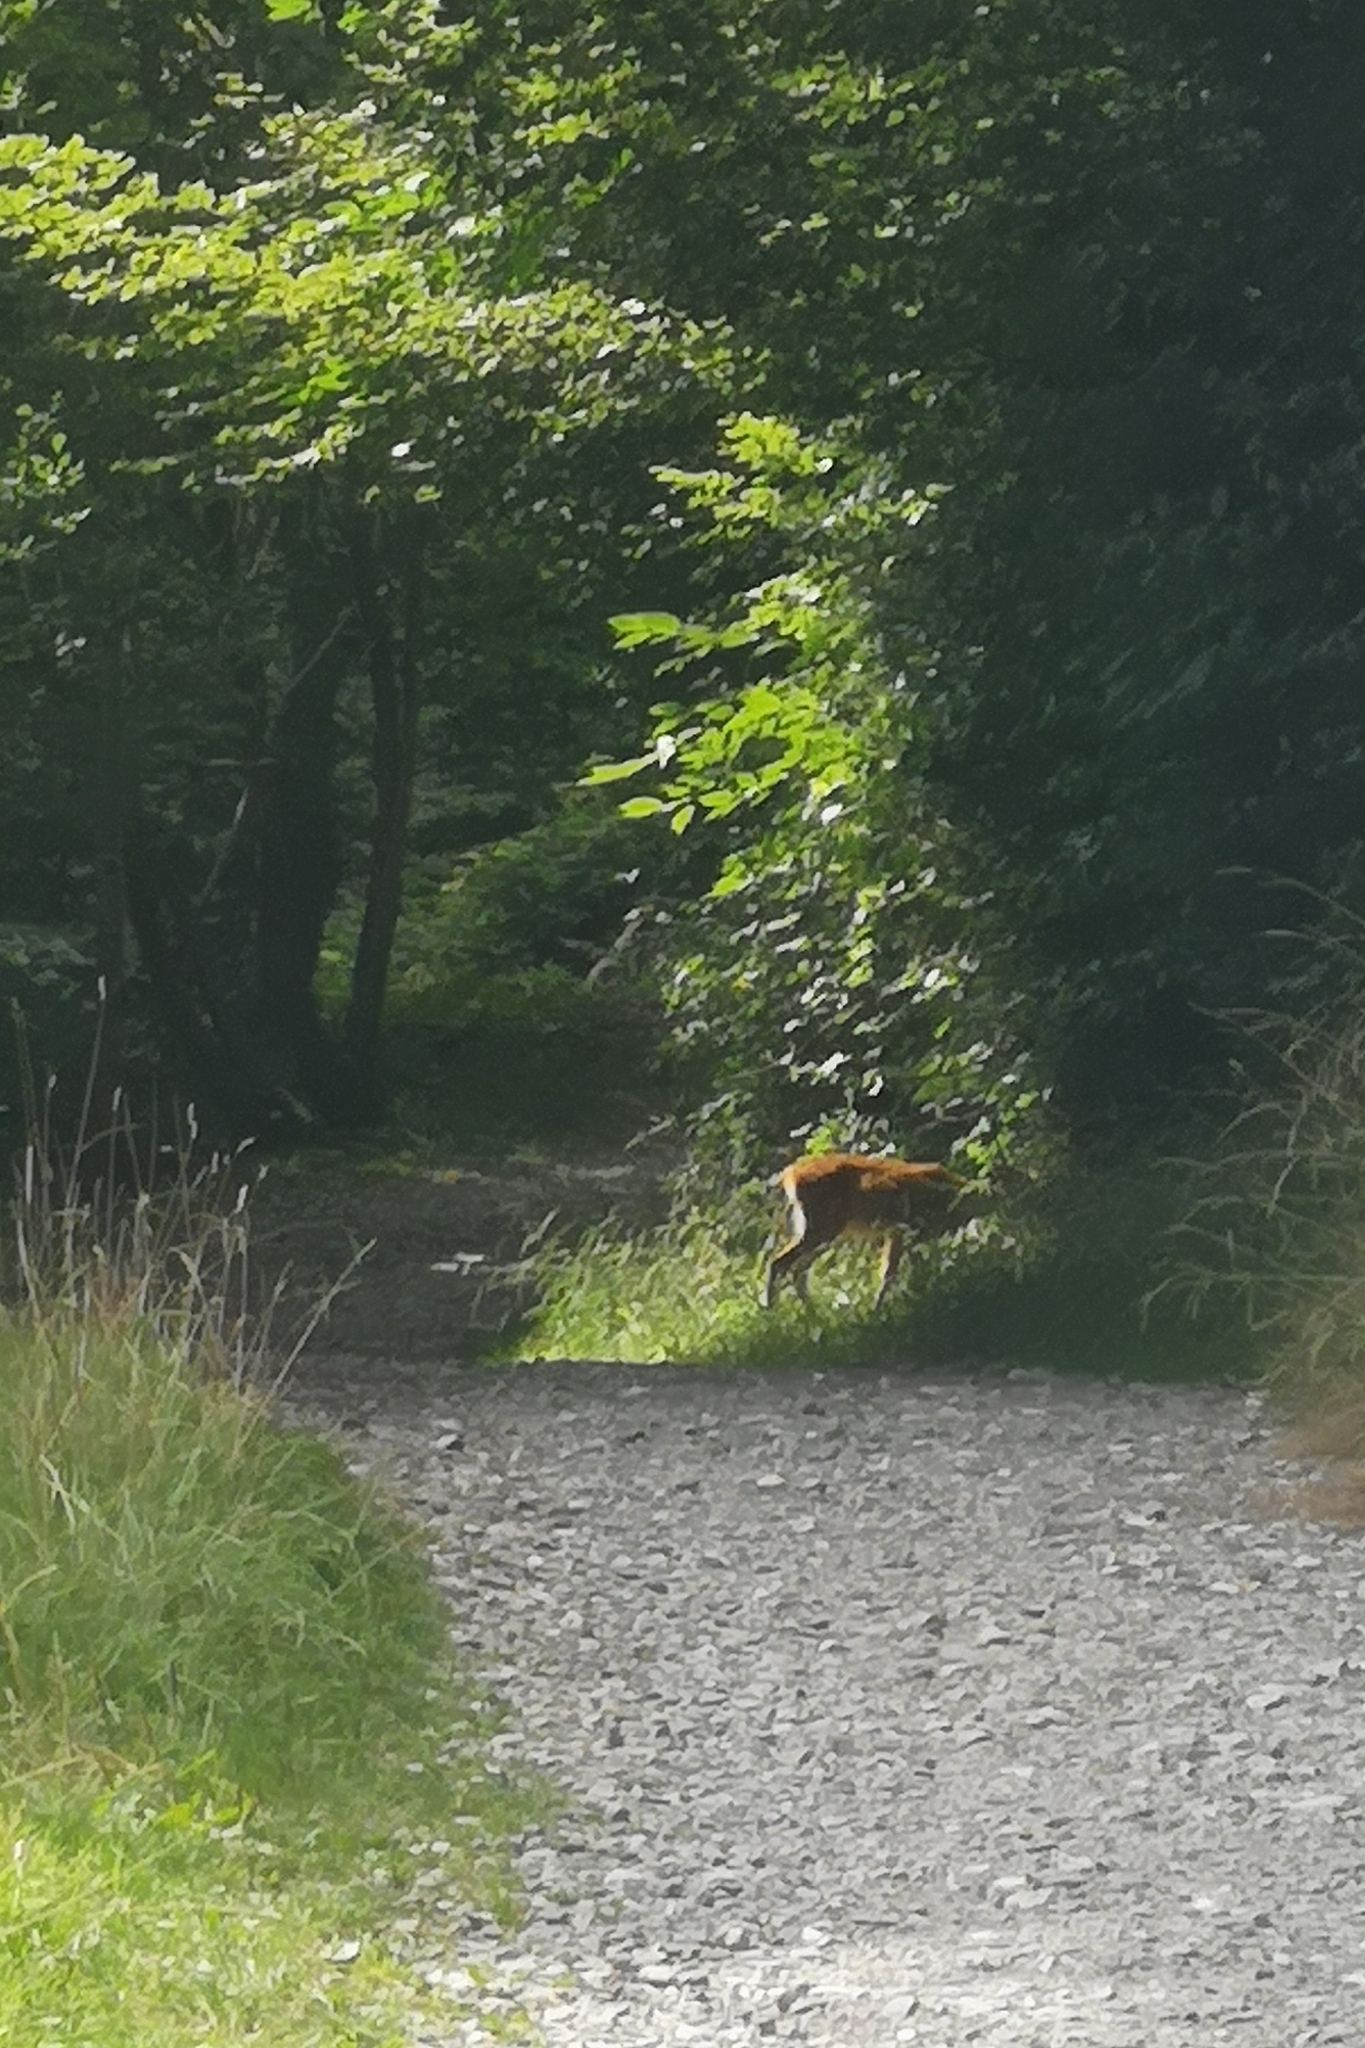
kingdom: Animalia
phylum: Chordata
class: Mammalia
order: Artiodactyla
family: Cervidae
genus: Capreolus
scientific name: Capreolus capreolus
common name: Western roe deer
